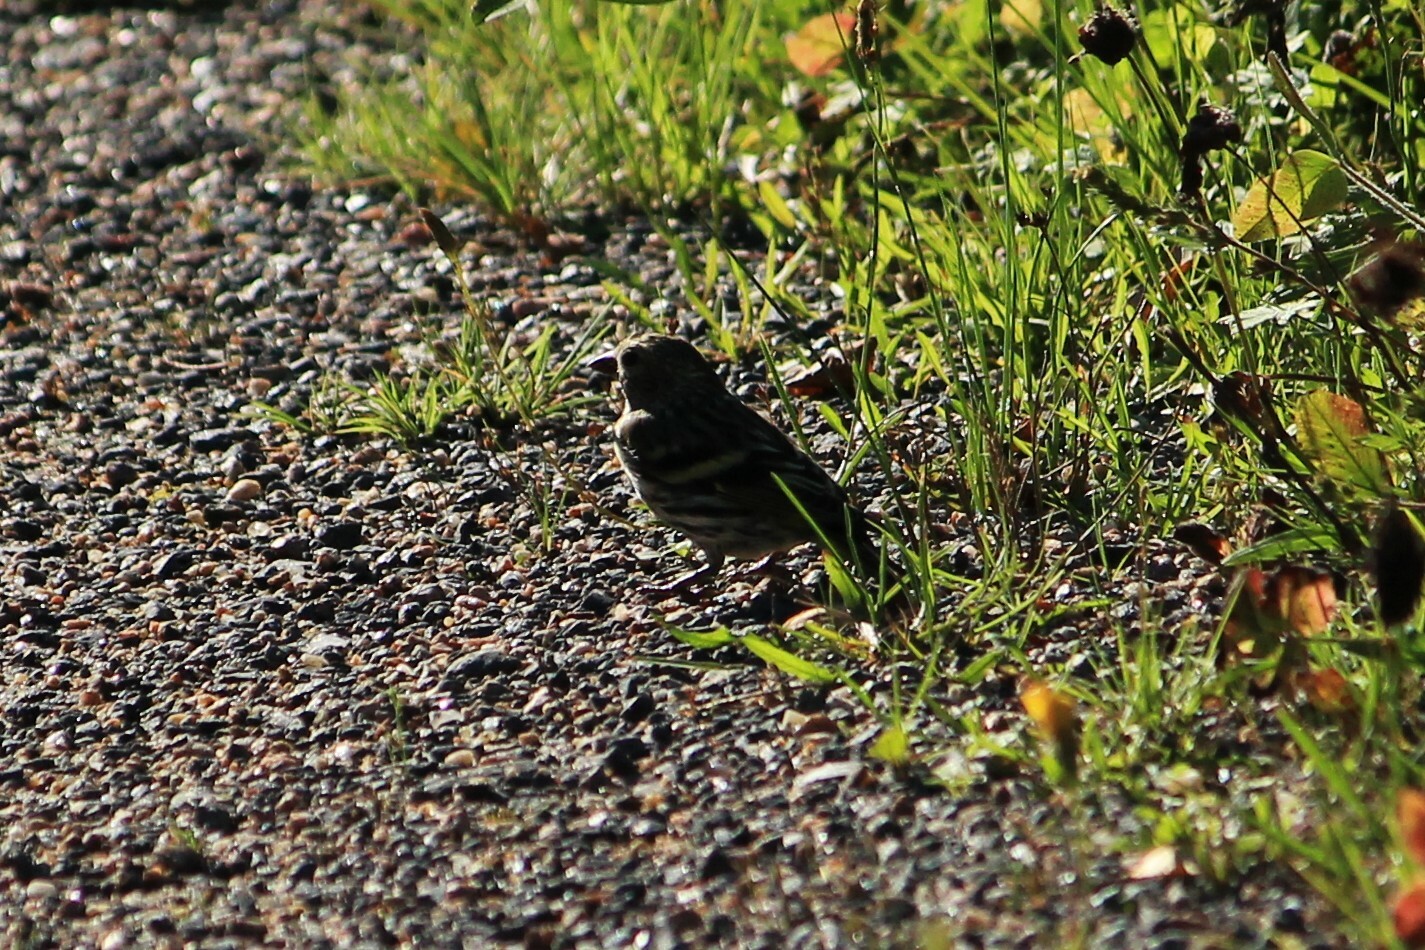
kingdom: Animalia
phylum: Chordata
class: Aves
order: Passeriformes
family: Fringillidae
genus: Spinus
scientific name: Spinus spinus
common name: Eurasian siskin
